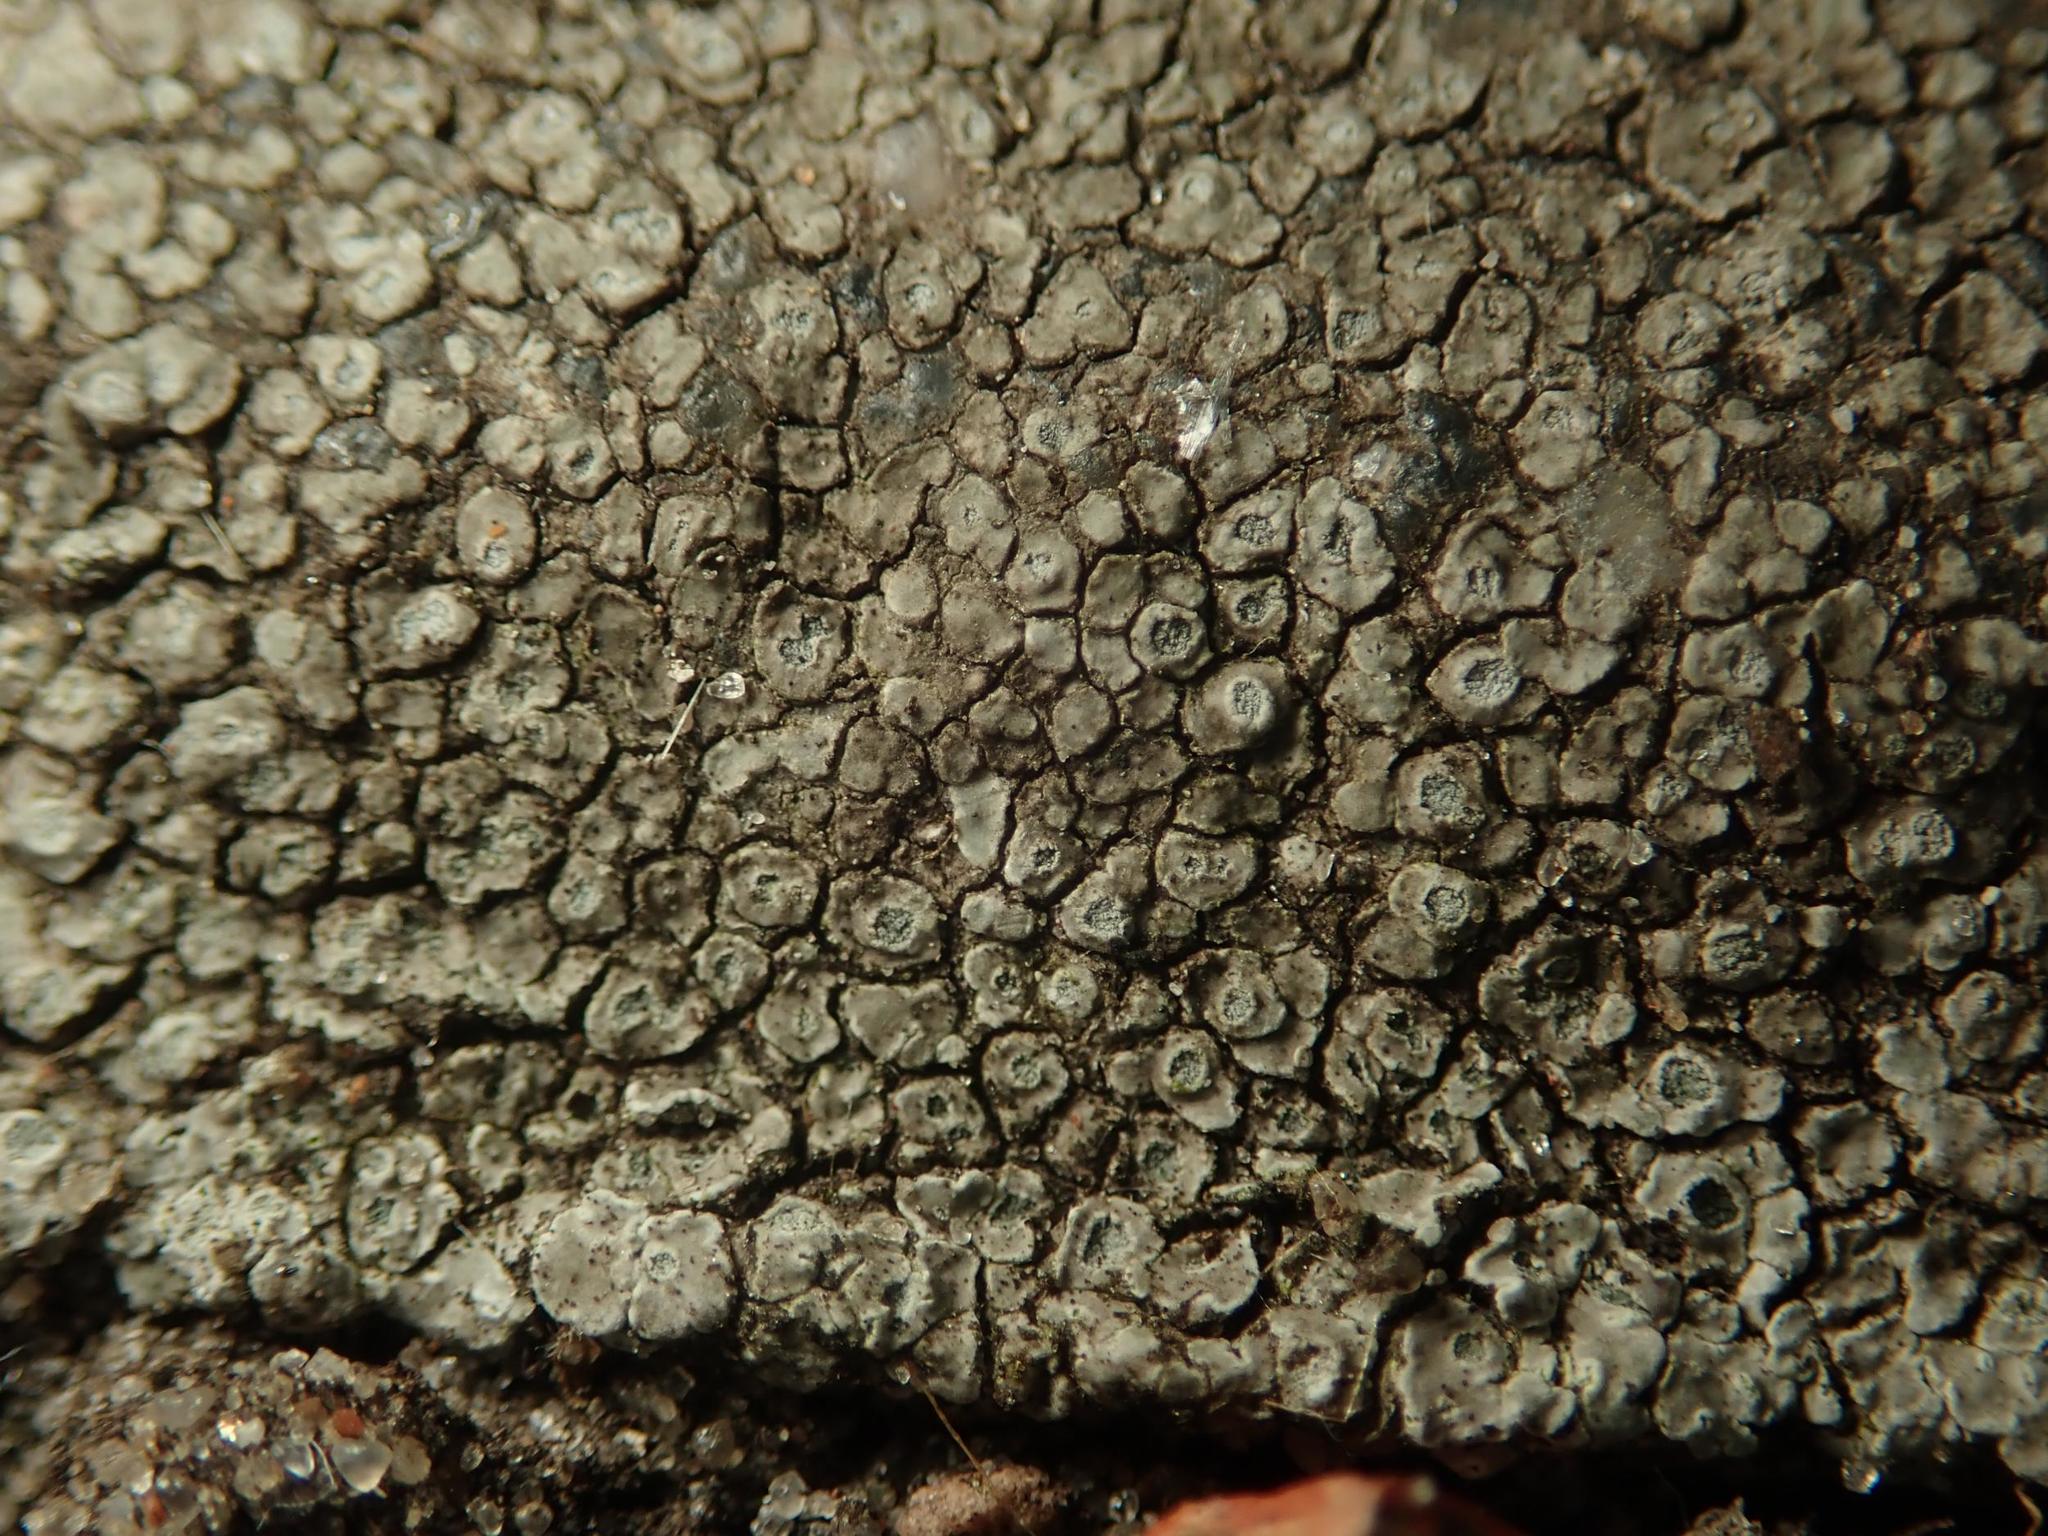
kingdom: Fungi
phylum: Ascomycota
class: Lecanoromycetes
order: Pertusariales
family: Megasporaceae
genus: Circinaria
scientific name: Circinaria contorta
